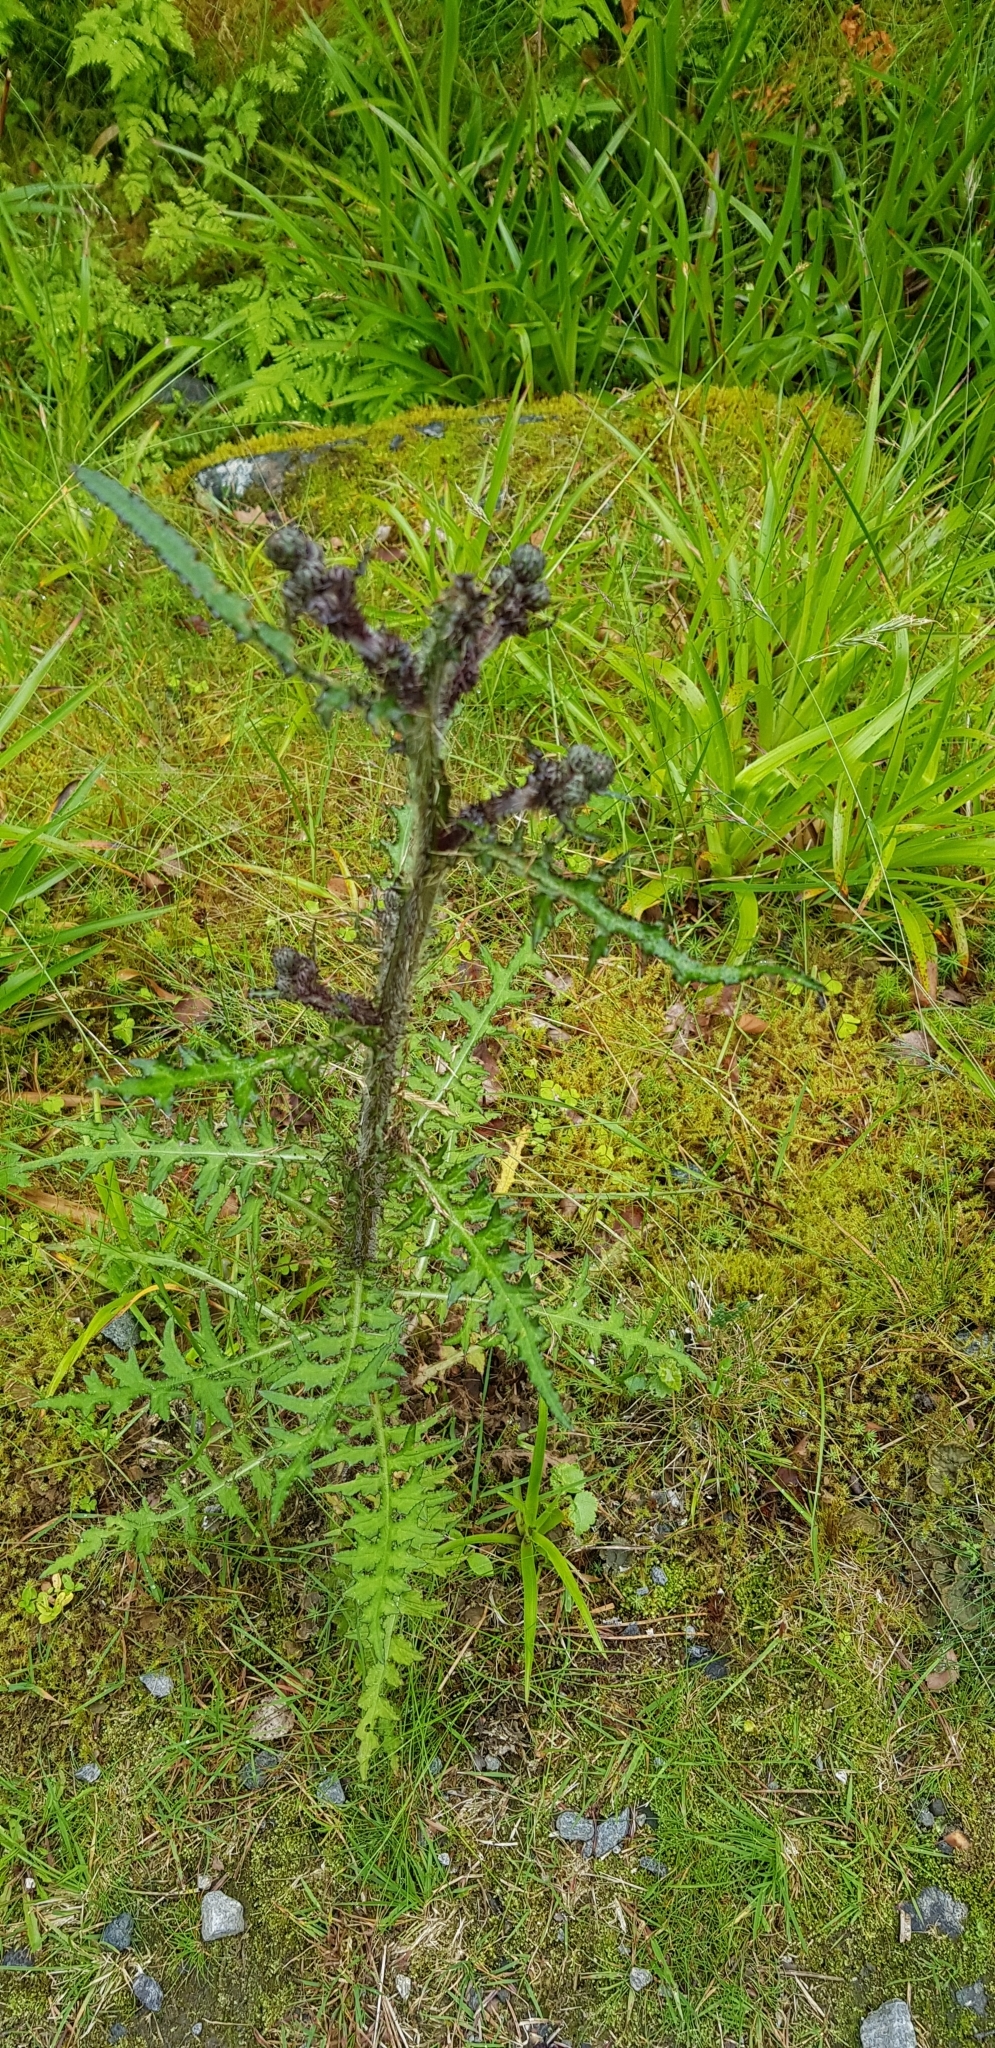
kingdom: Plantae
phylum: Tracheophyta
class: Magnoliopsida
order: Asterales
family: Asteraceae
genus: Cirsium
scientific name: Cirsium palustre
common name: Marsh thistle
